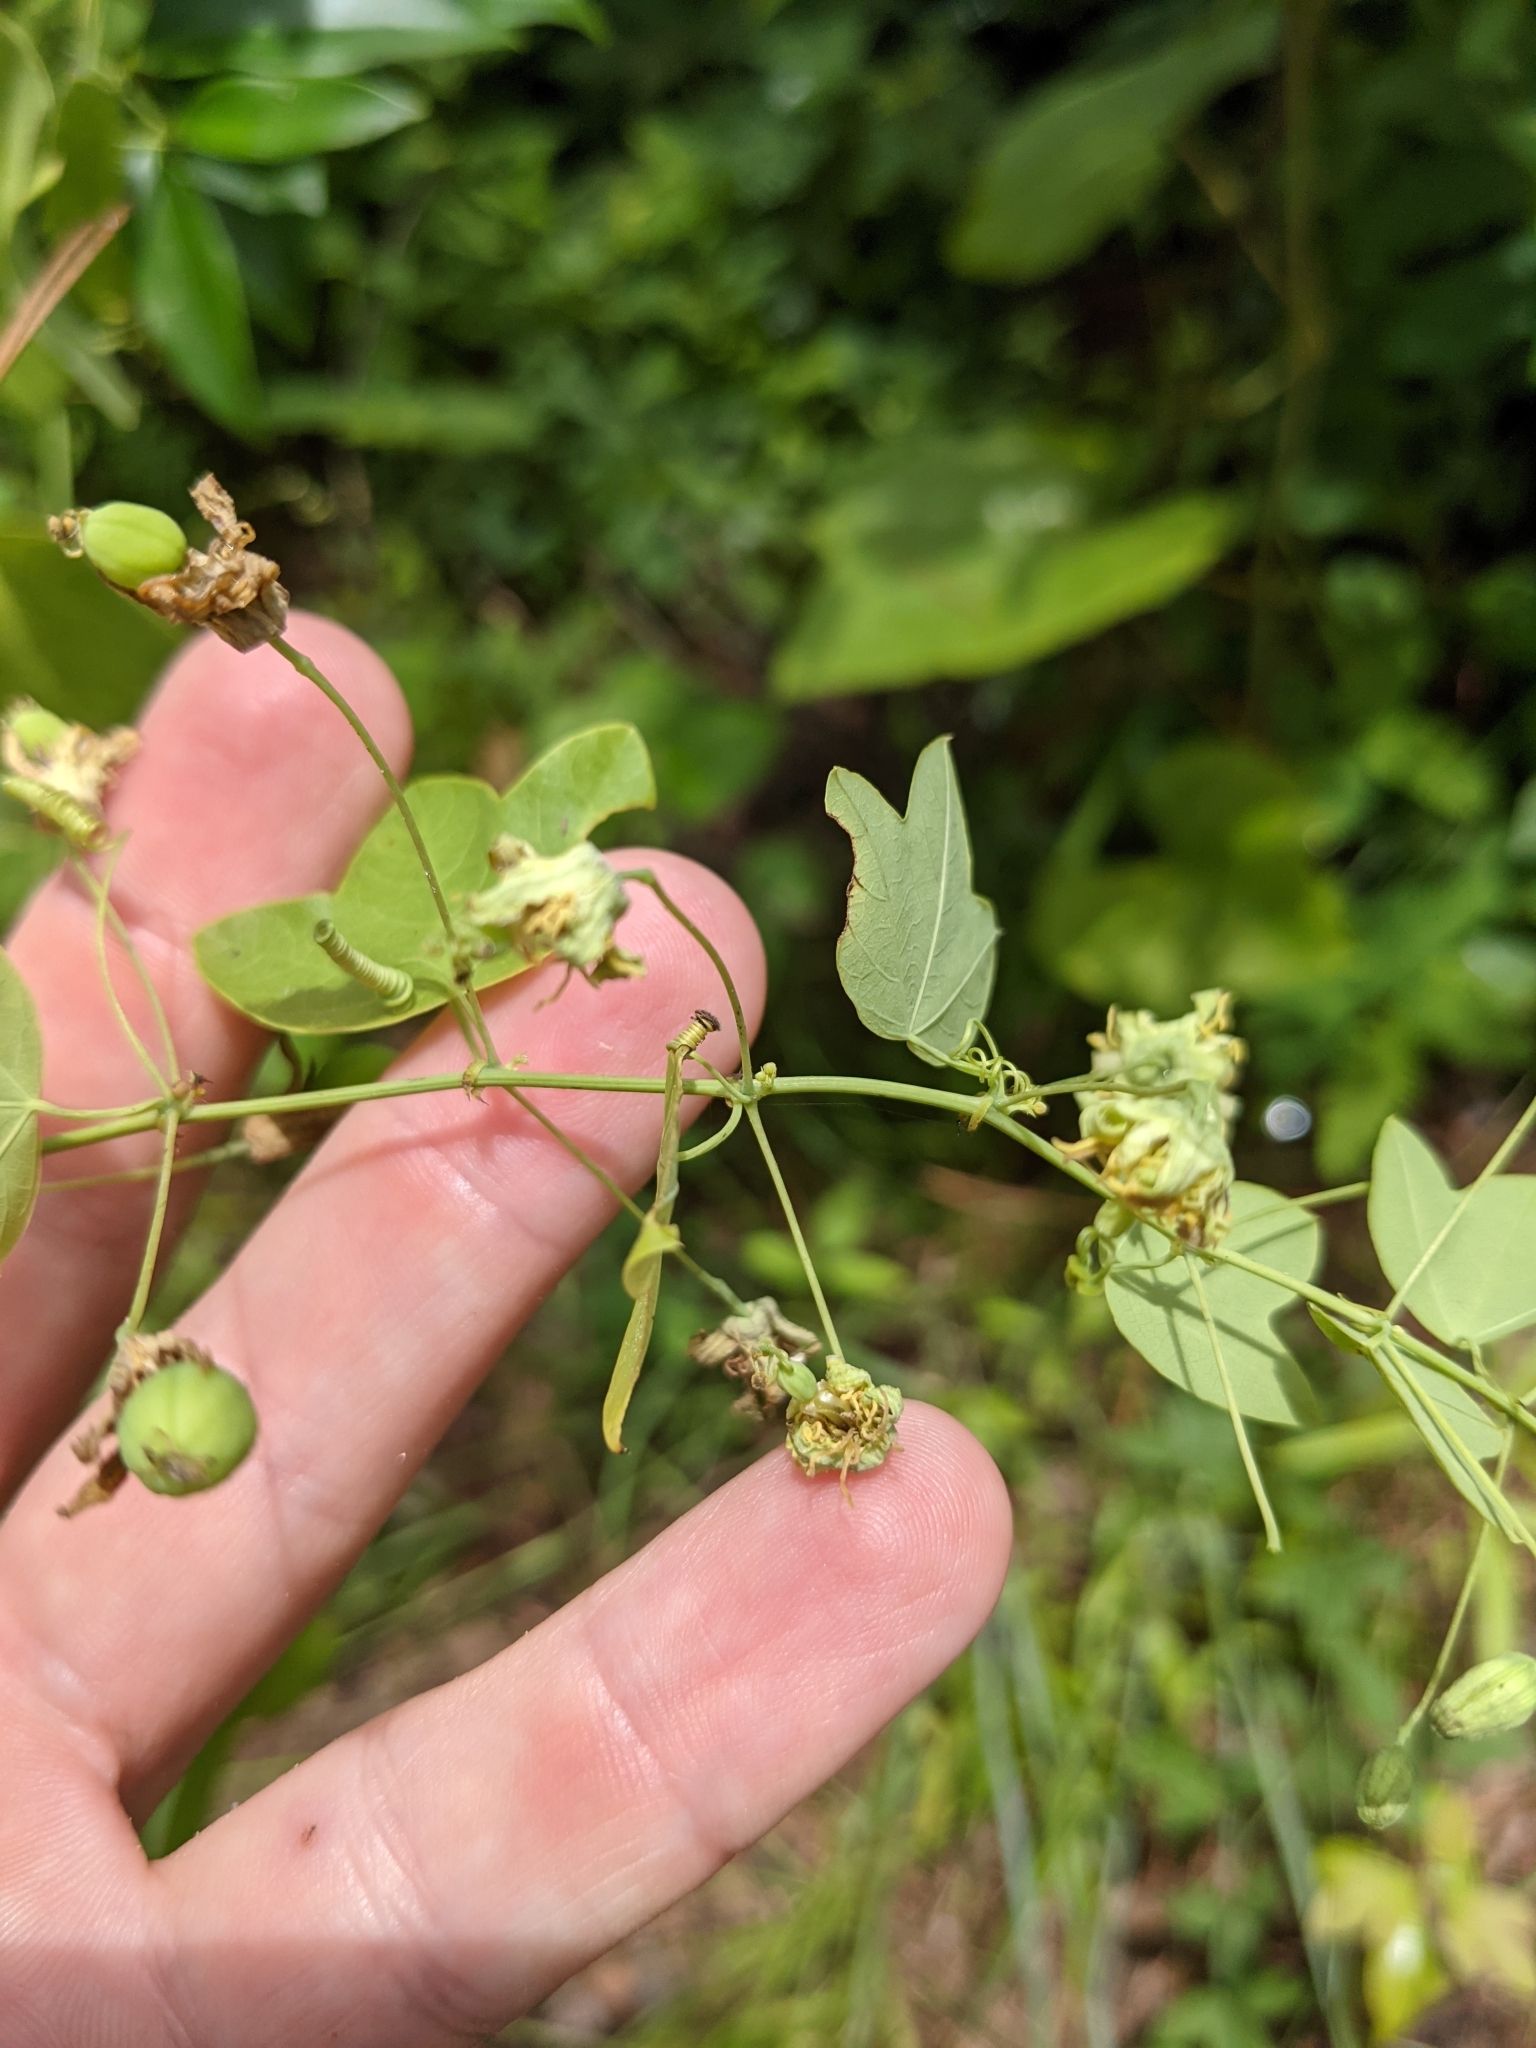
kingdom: Plantae
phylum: Tracheophyta
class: Magnoliopsida
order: Malpighiales
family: Passifloraceae
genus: Passiflora
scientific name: Passiflora lutea
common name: Yellow passionflower
